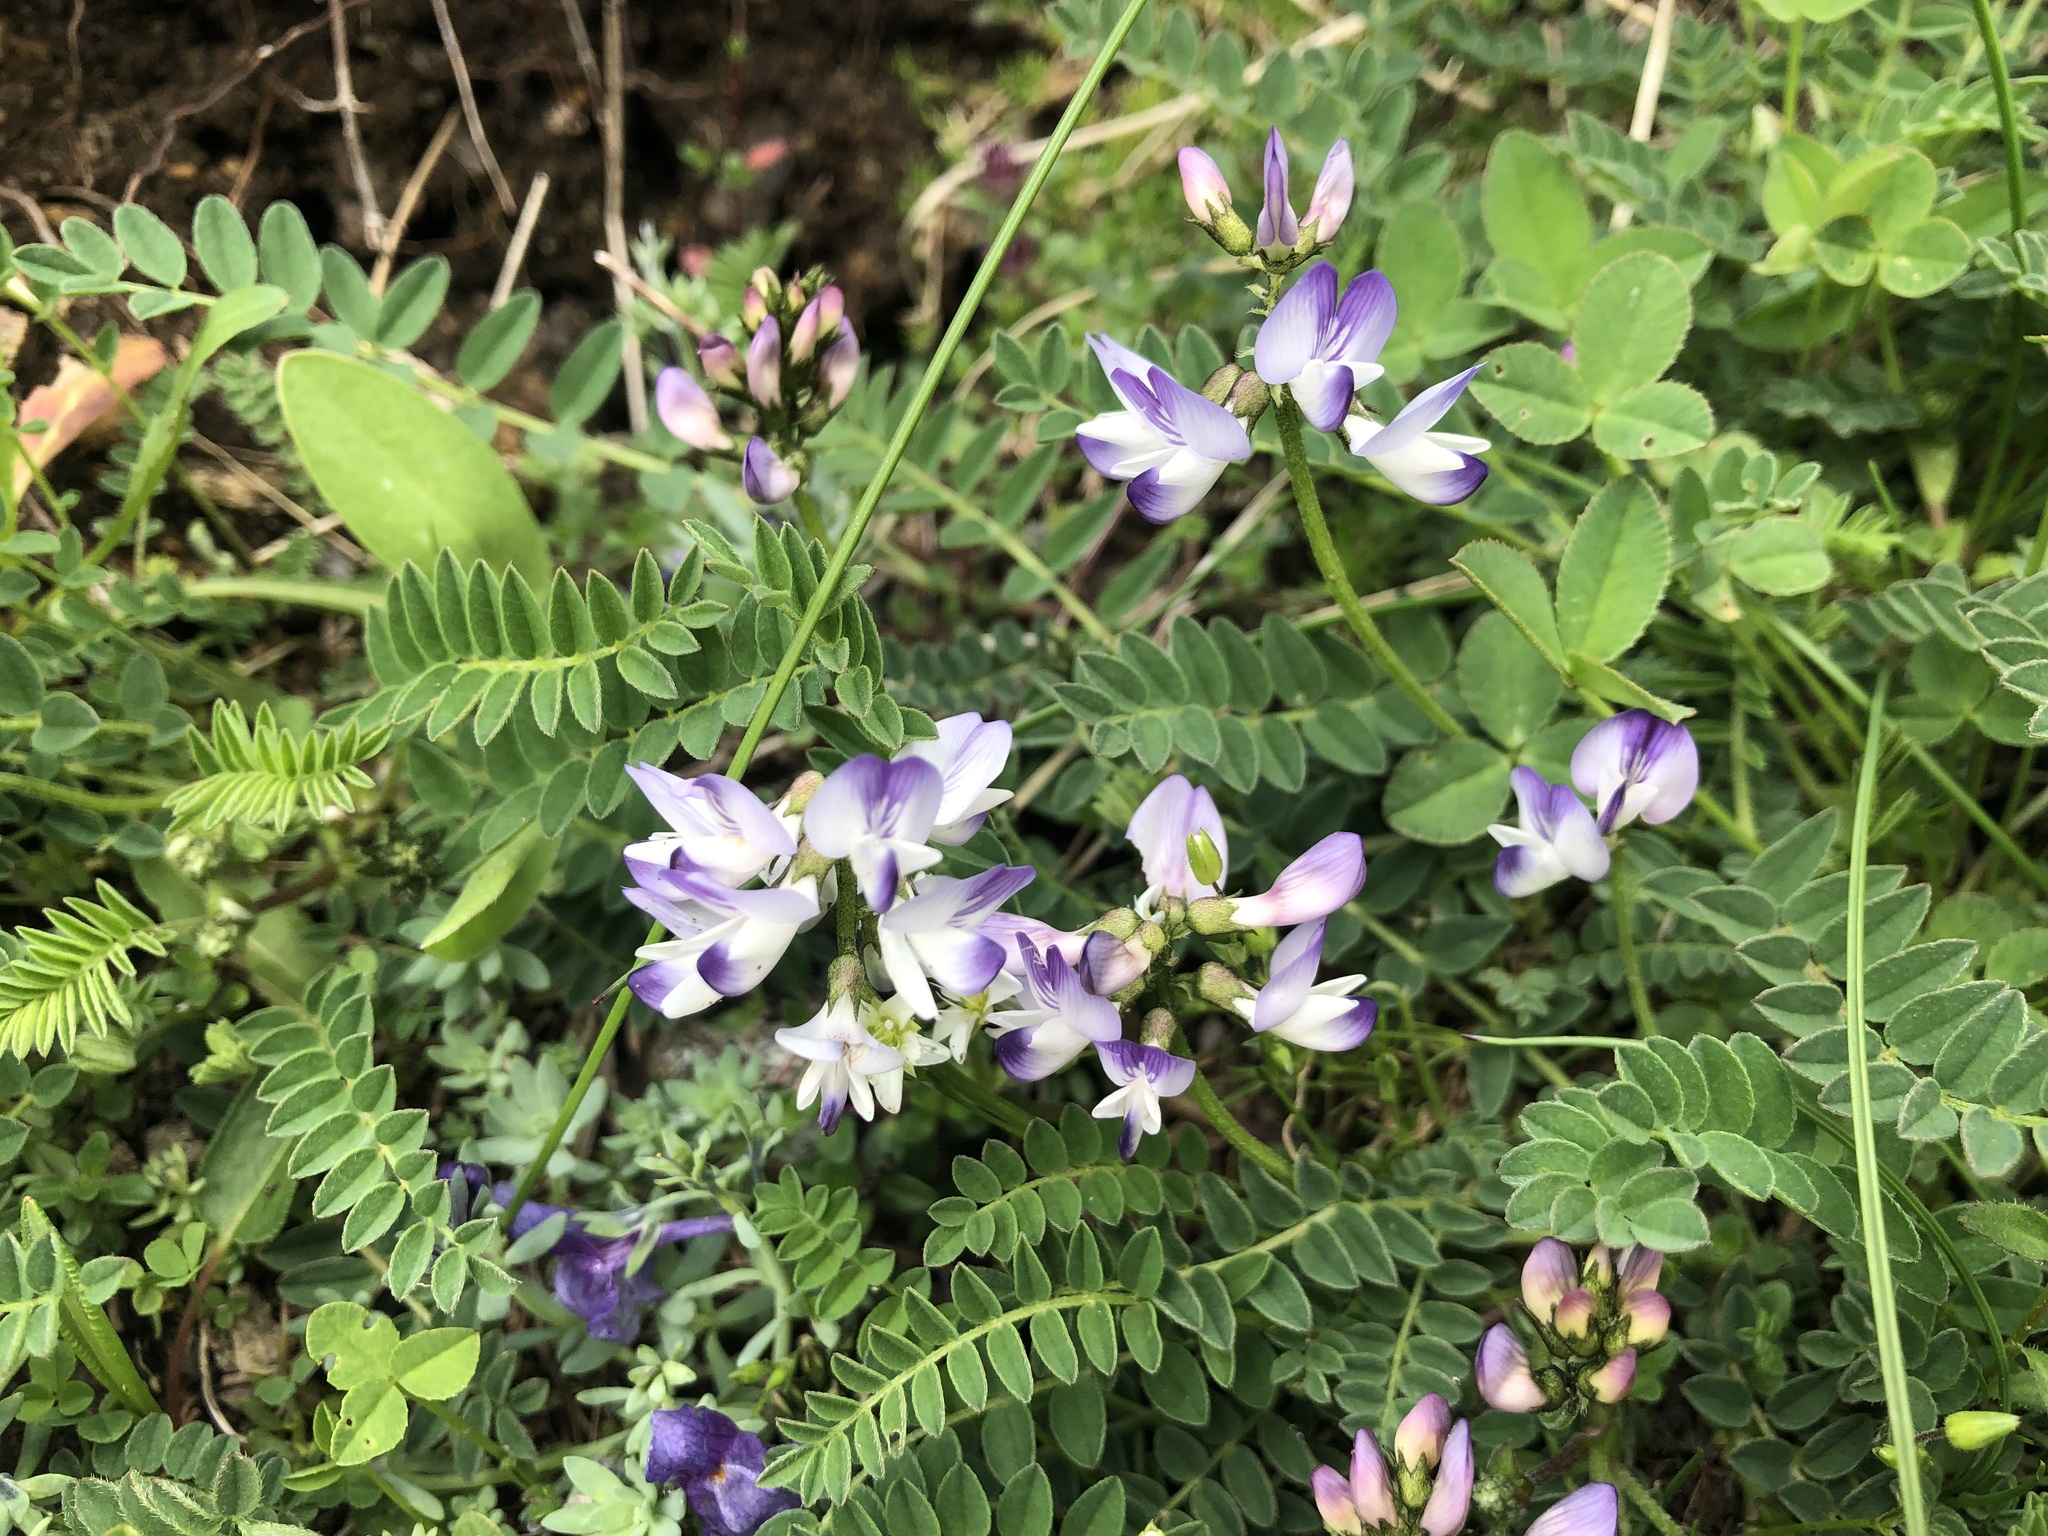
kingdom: Plantae
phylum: Tracheophyta
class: Magnoliopsida
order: Fabales
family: Fabaceae
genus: Astragalus
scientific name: Astragalus alpinus
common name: Alpine milk-vetch
